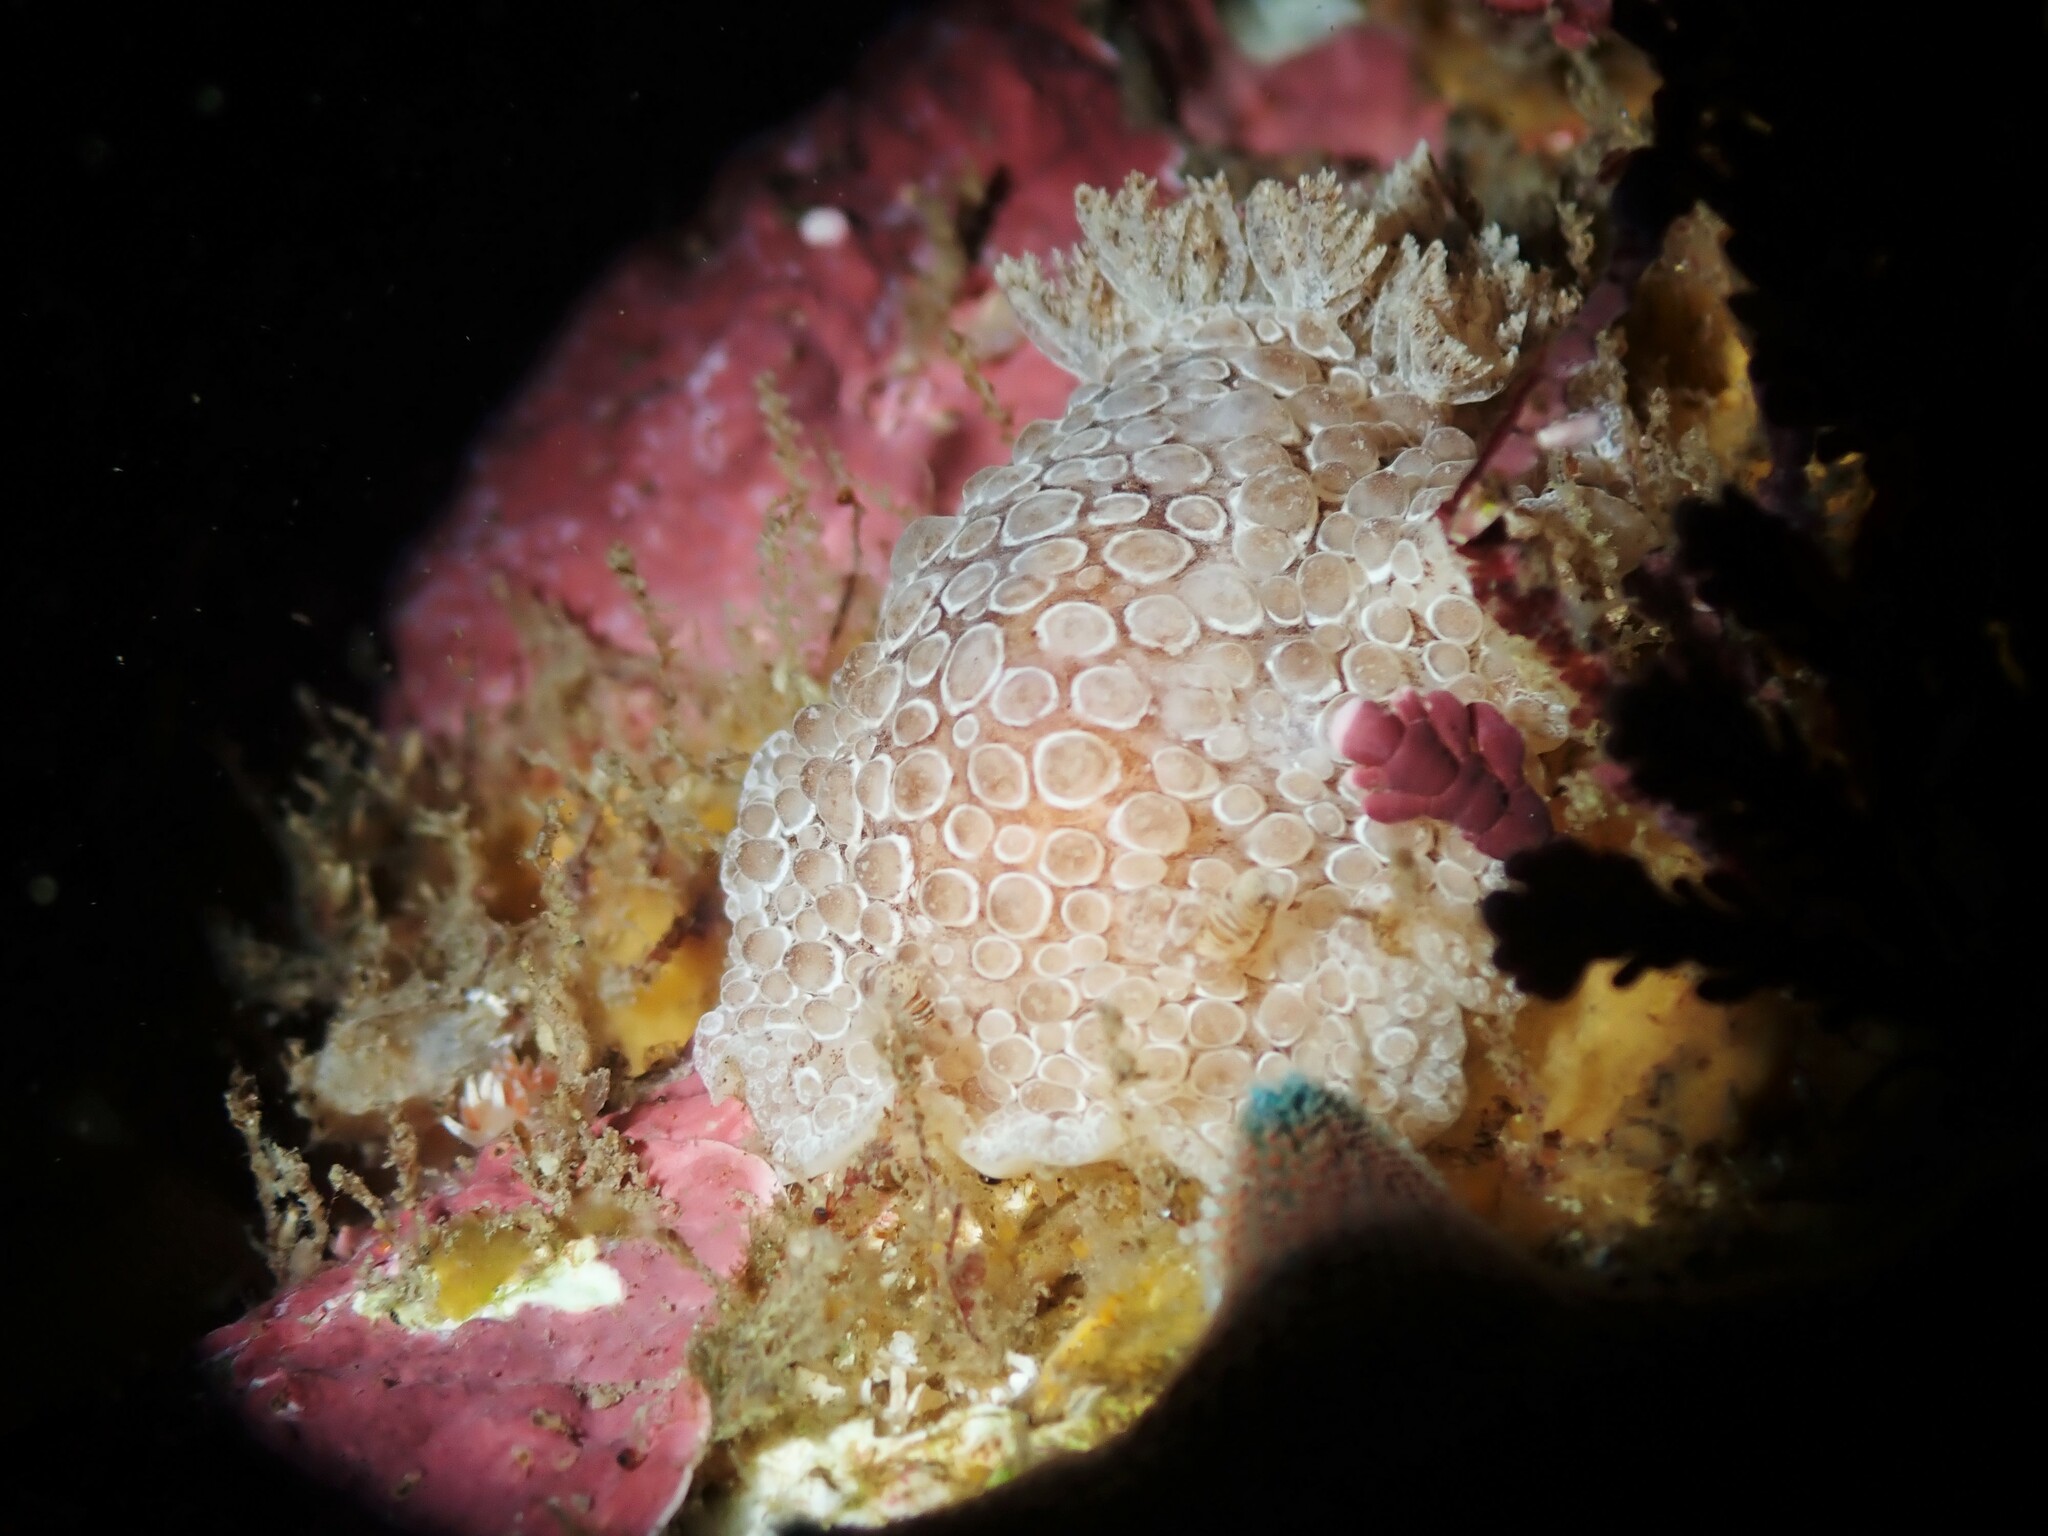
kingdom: Animalia
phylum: Mollusca
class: Gastropoda
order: Nudibranchia
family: Discodorididae
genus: Carminodoris
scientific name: Carminodoris nodulosa
